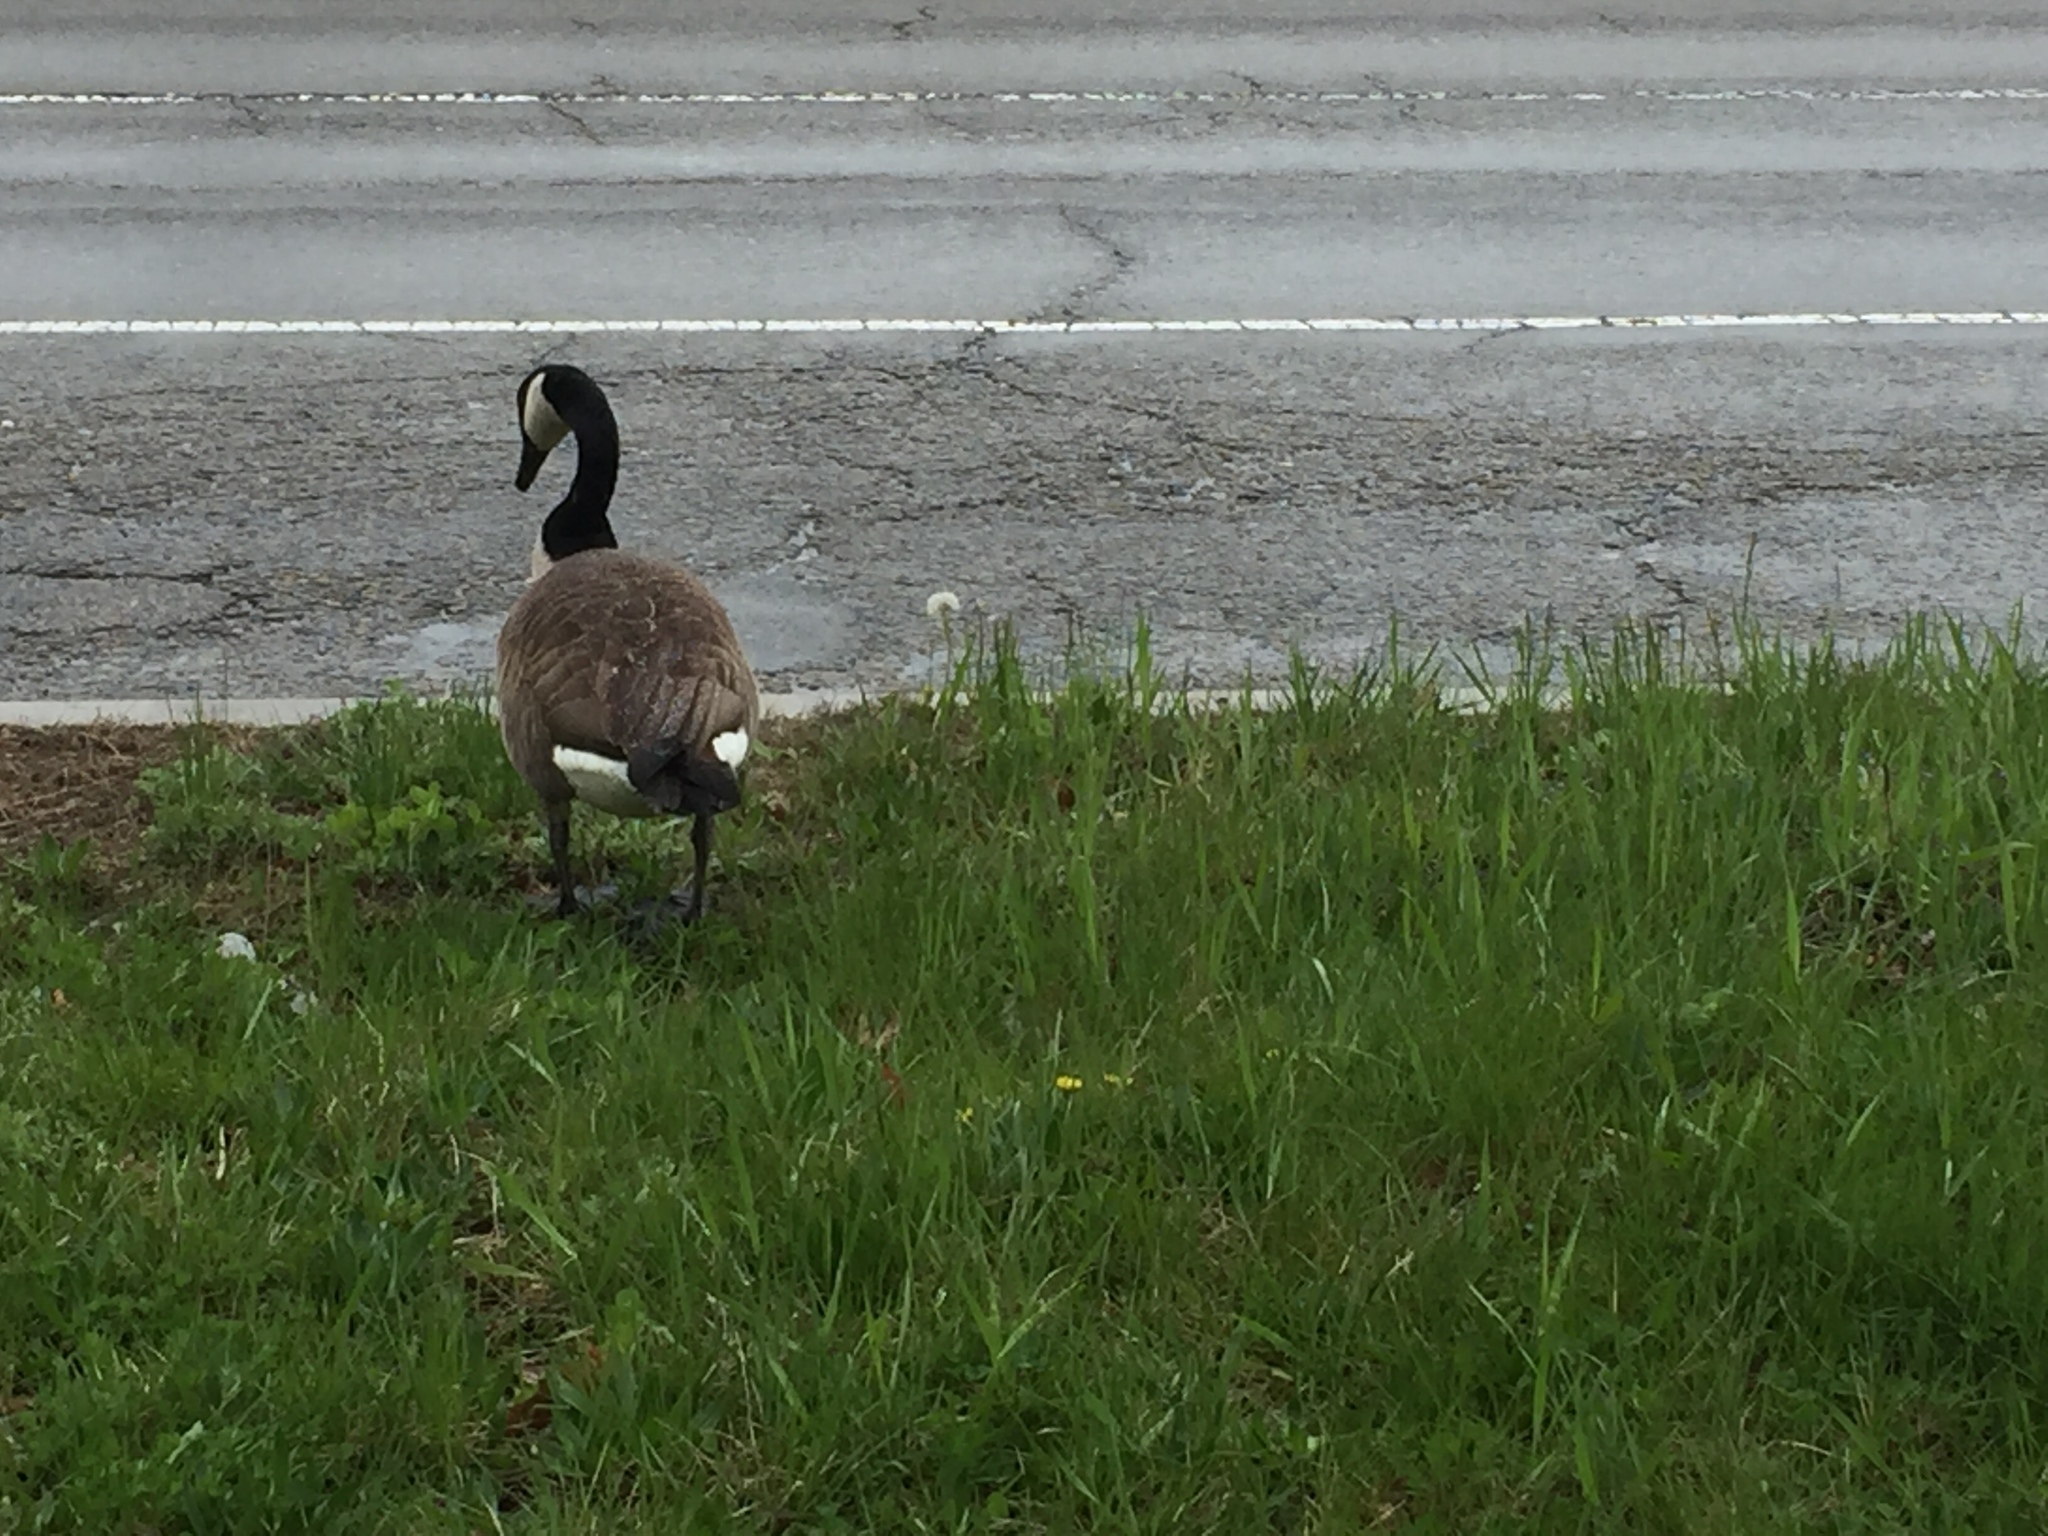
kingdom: Animalia
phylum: Chordata
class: Aves
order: Anseriformes
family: Anatidae
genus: Branta
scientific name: Branta canadensis
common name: Canada goose
